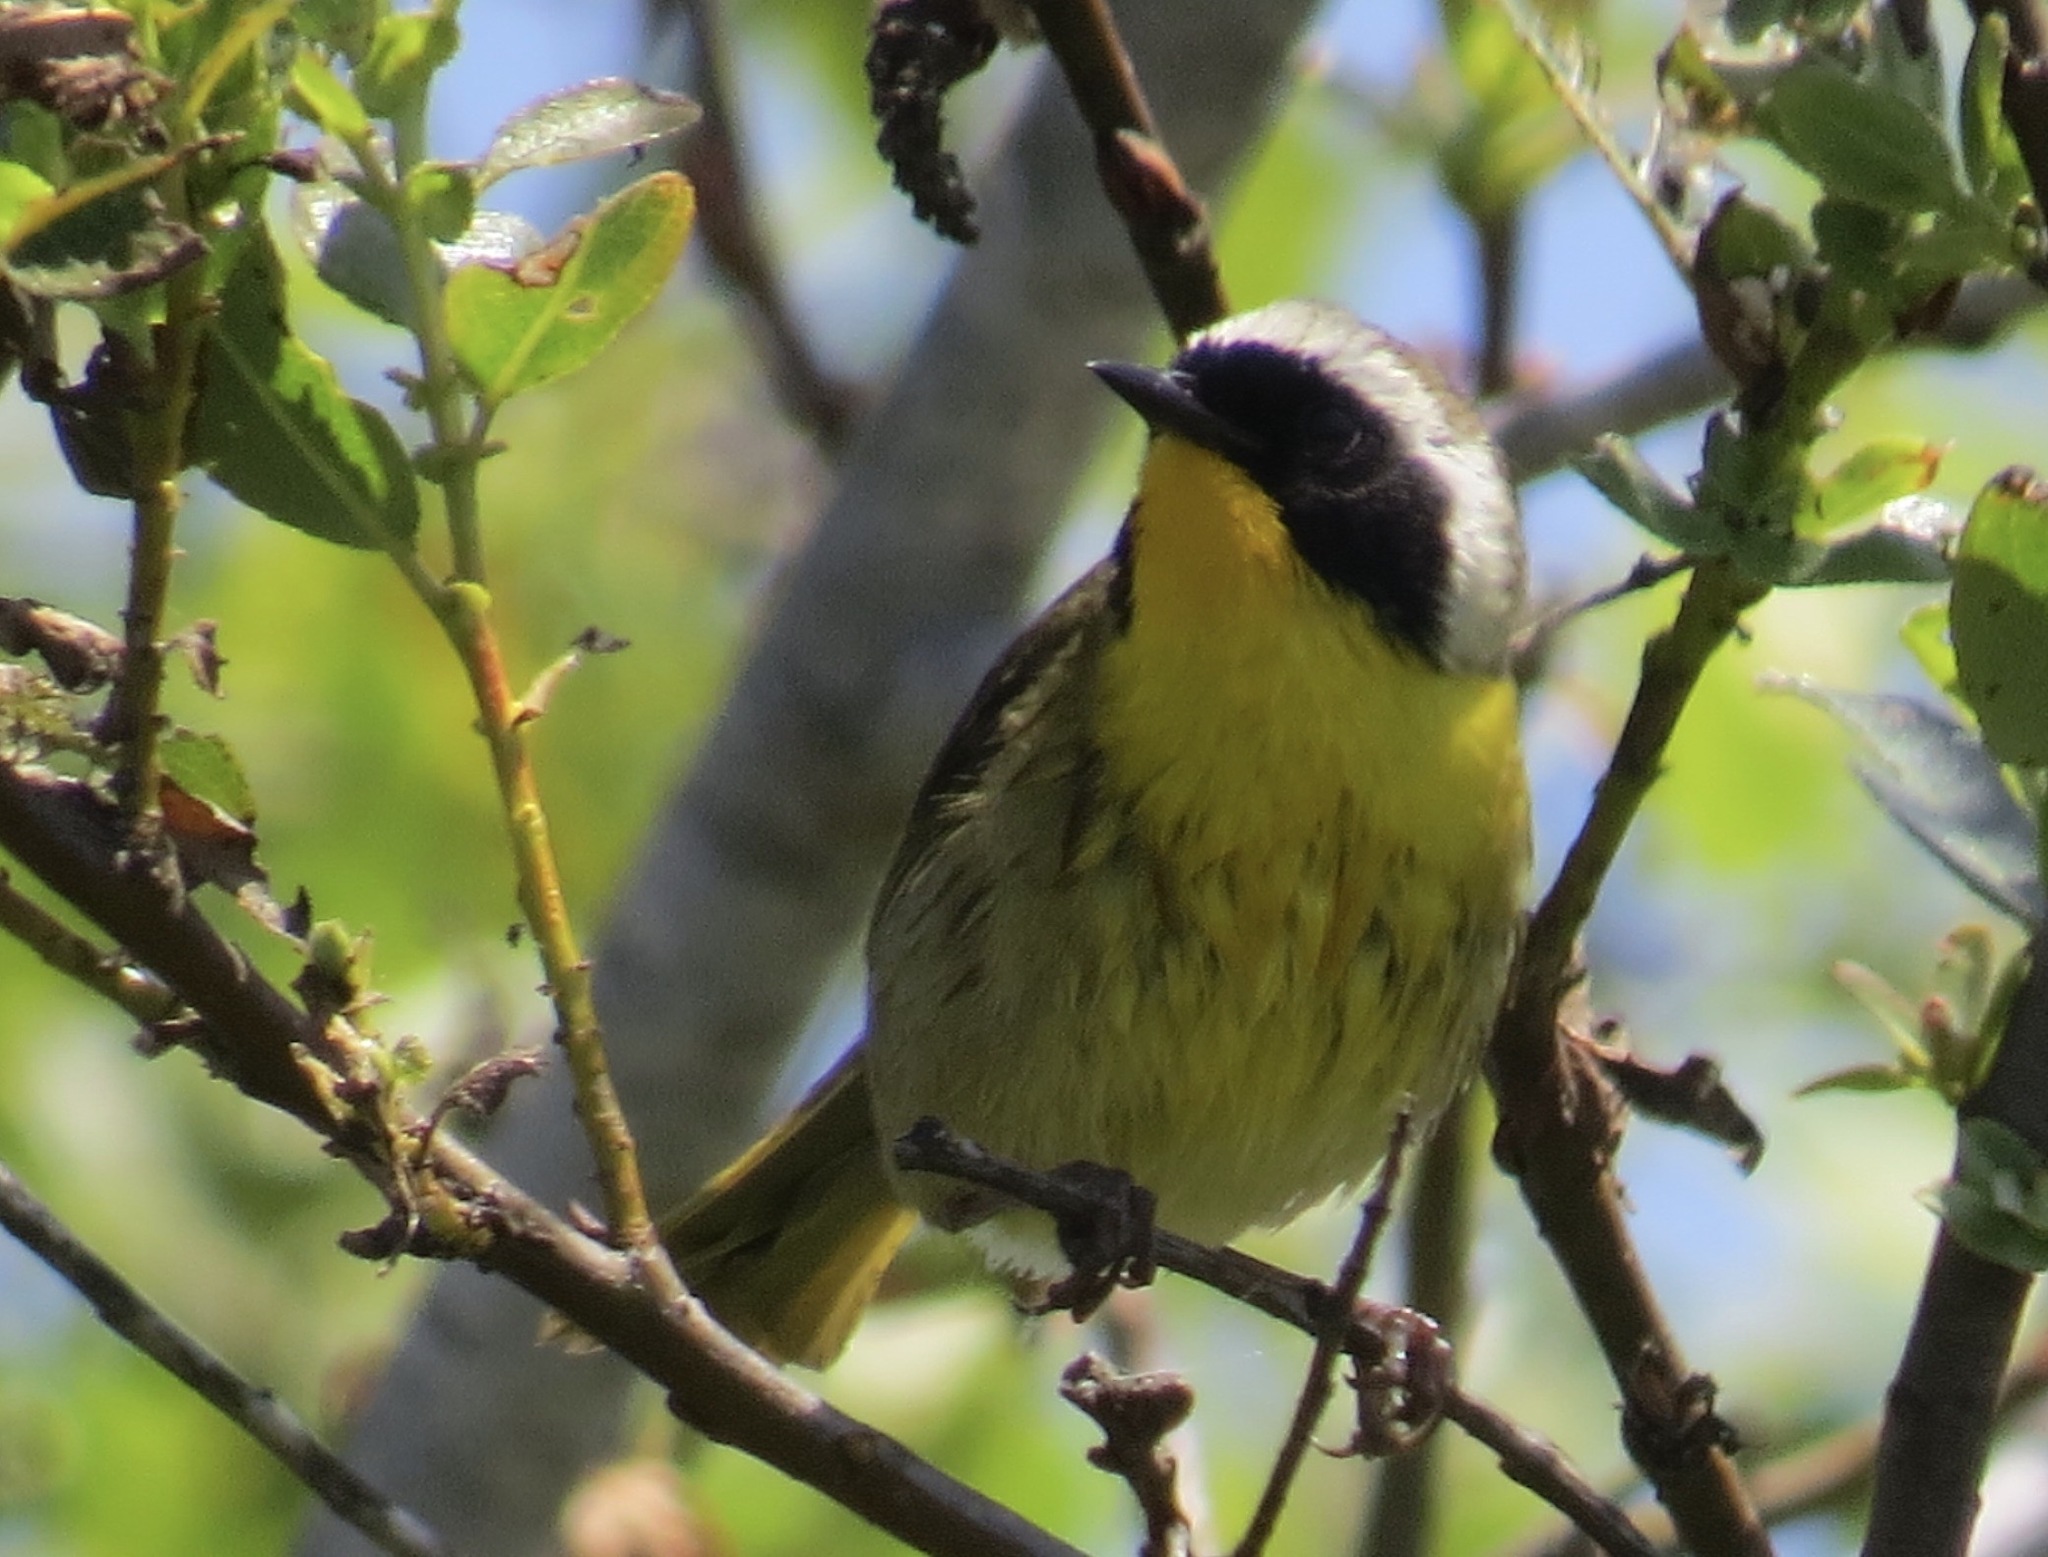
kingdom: Animalia
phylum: Chordata
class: Aves
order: Passeriformes
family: Parulidae
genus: Geothlypis
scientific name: Geothlypis trichas
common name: Common yellowthroat
